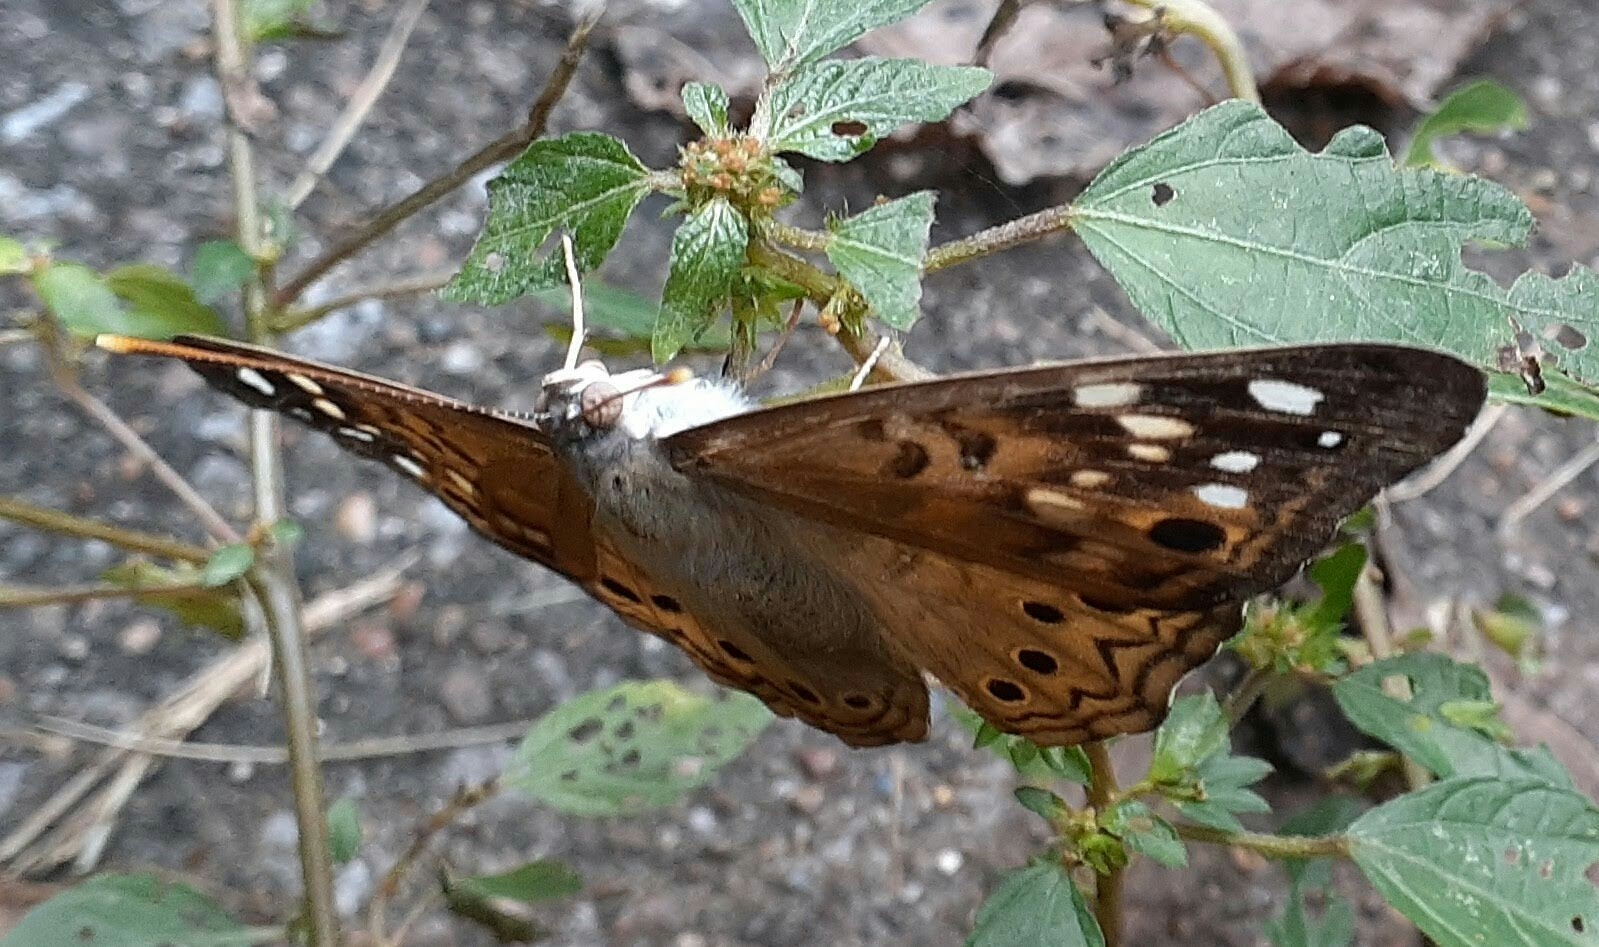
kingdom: Animalia
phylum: Arthropoda
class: Insecta
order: Lepidoptera
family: Nymphalidae
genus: Asterocampa
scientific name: Asterocampa celtis
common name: Hackberry emperor
